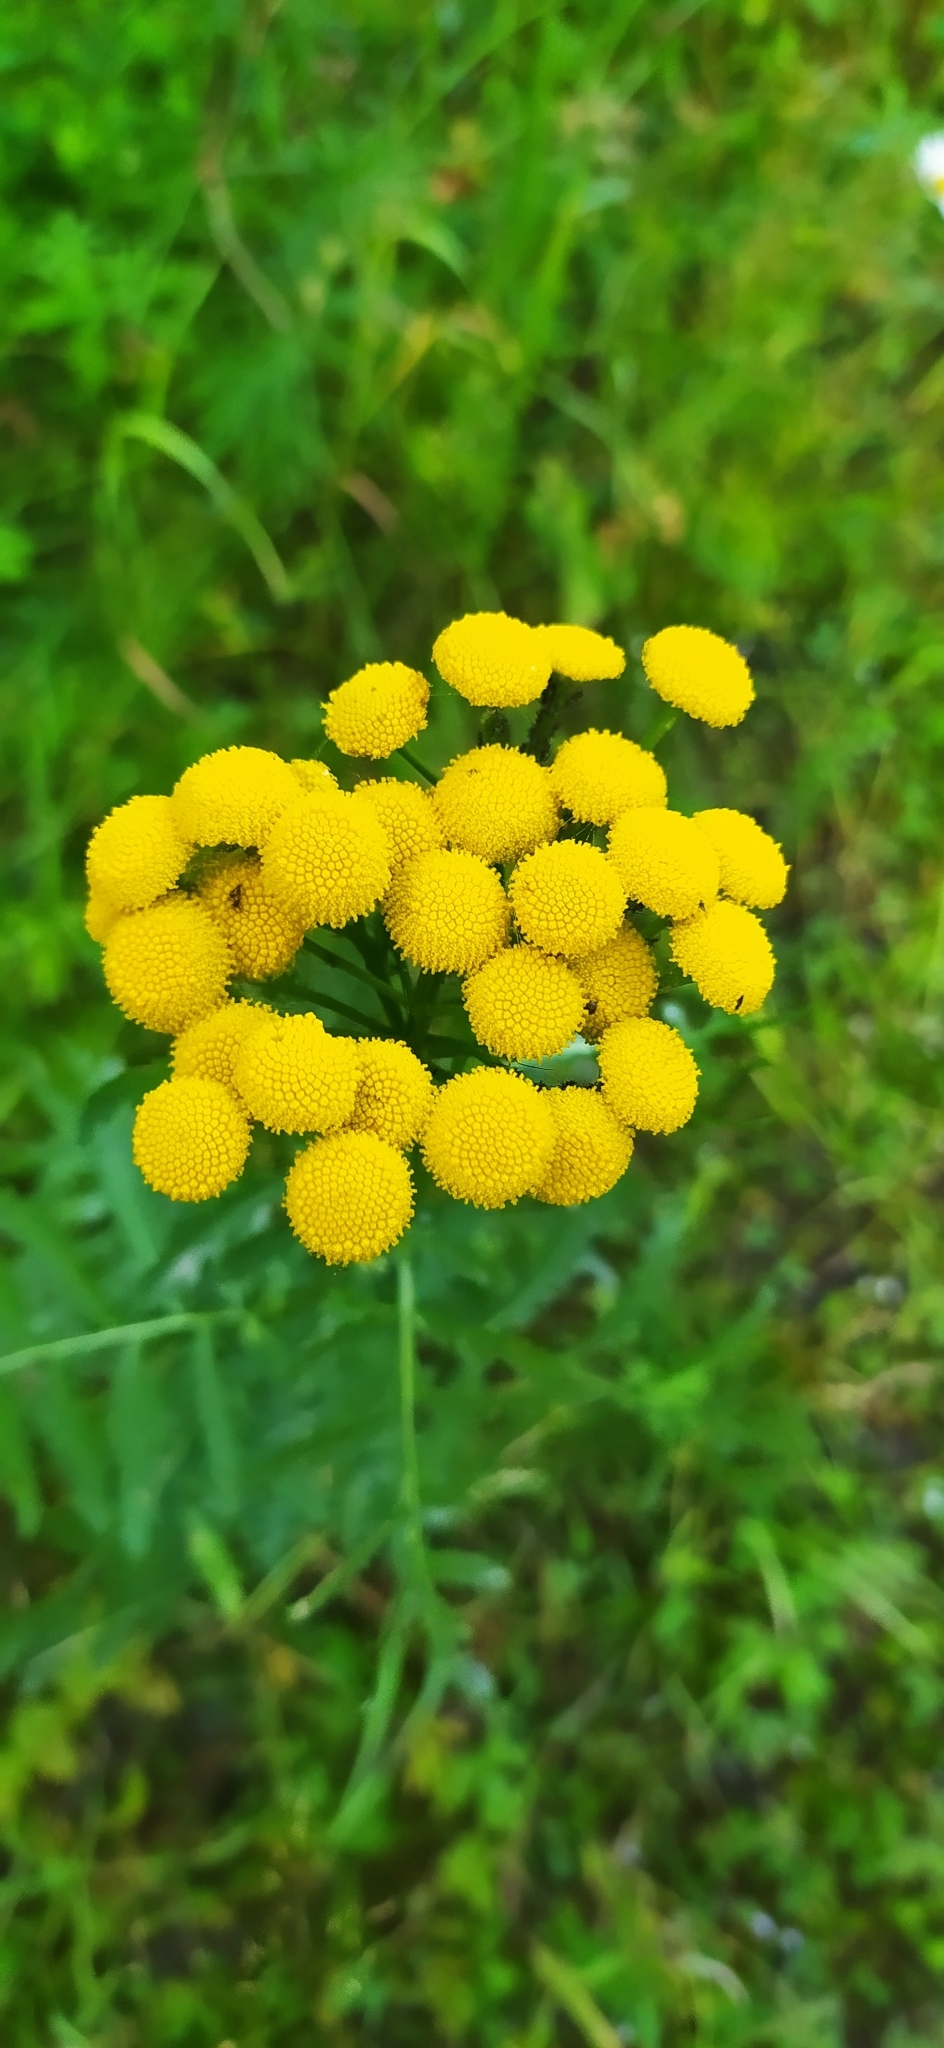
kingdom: Plantae
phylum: Tracheophyta
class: Magnoliopsida
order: Asterales
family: Asteraceae
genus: Tanacetum
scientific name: Tanacetum vulgare
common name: Common tansy
